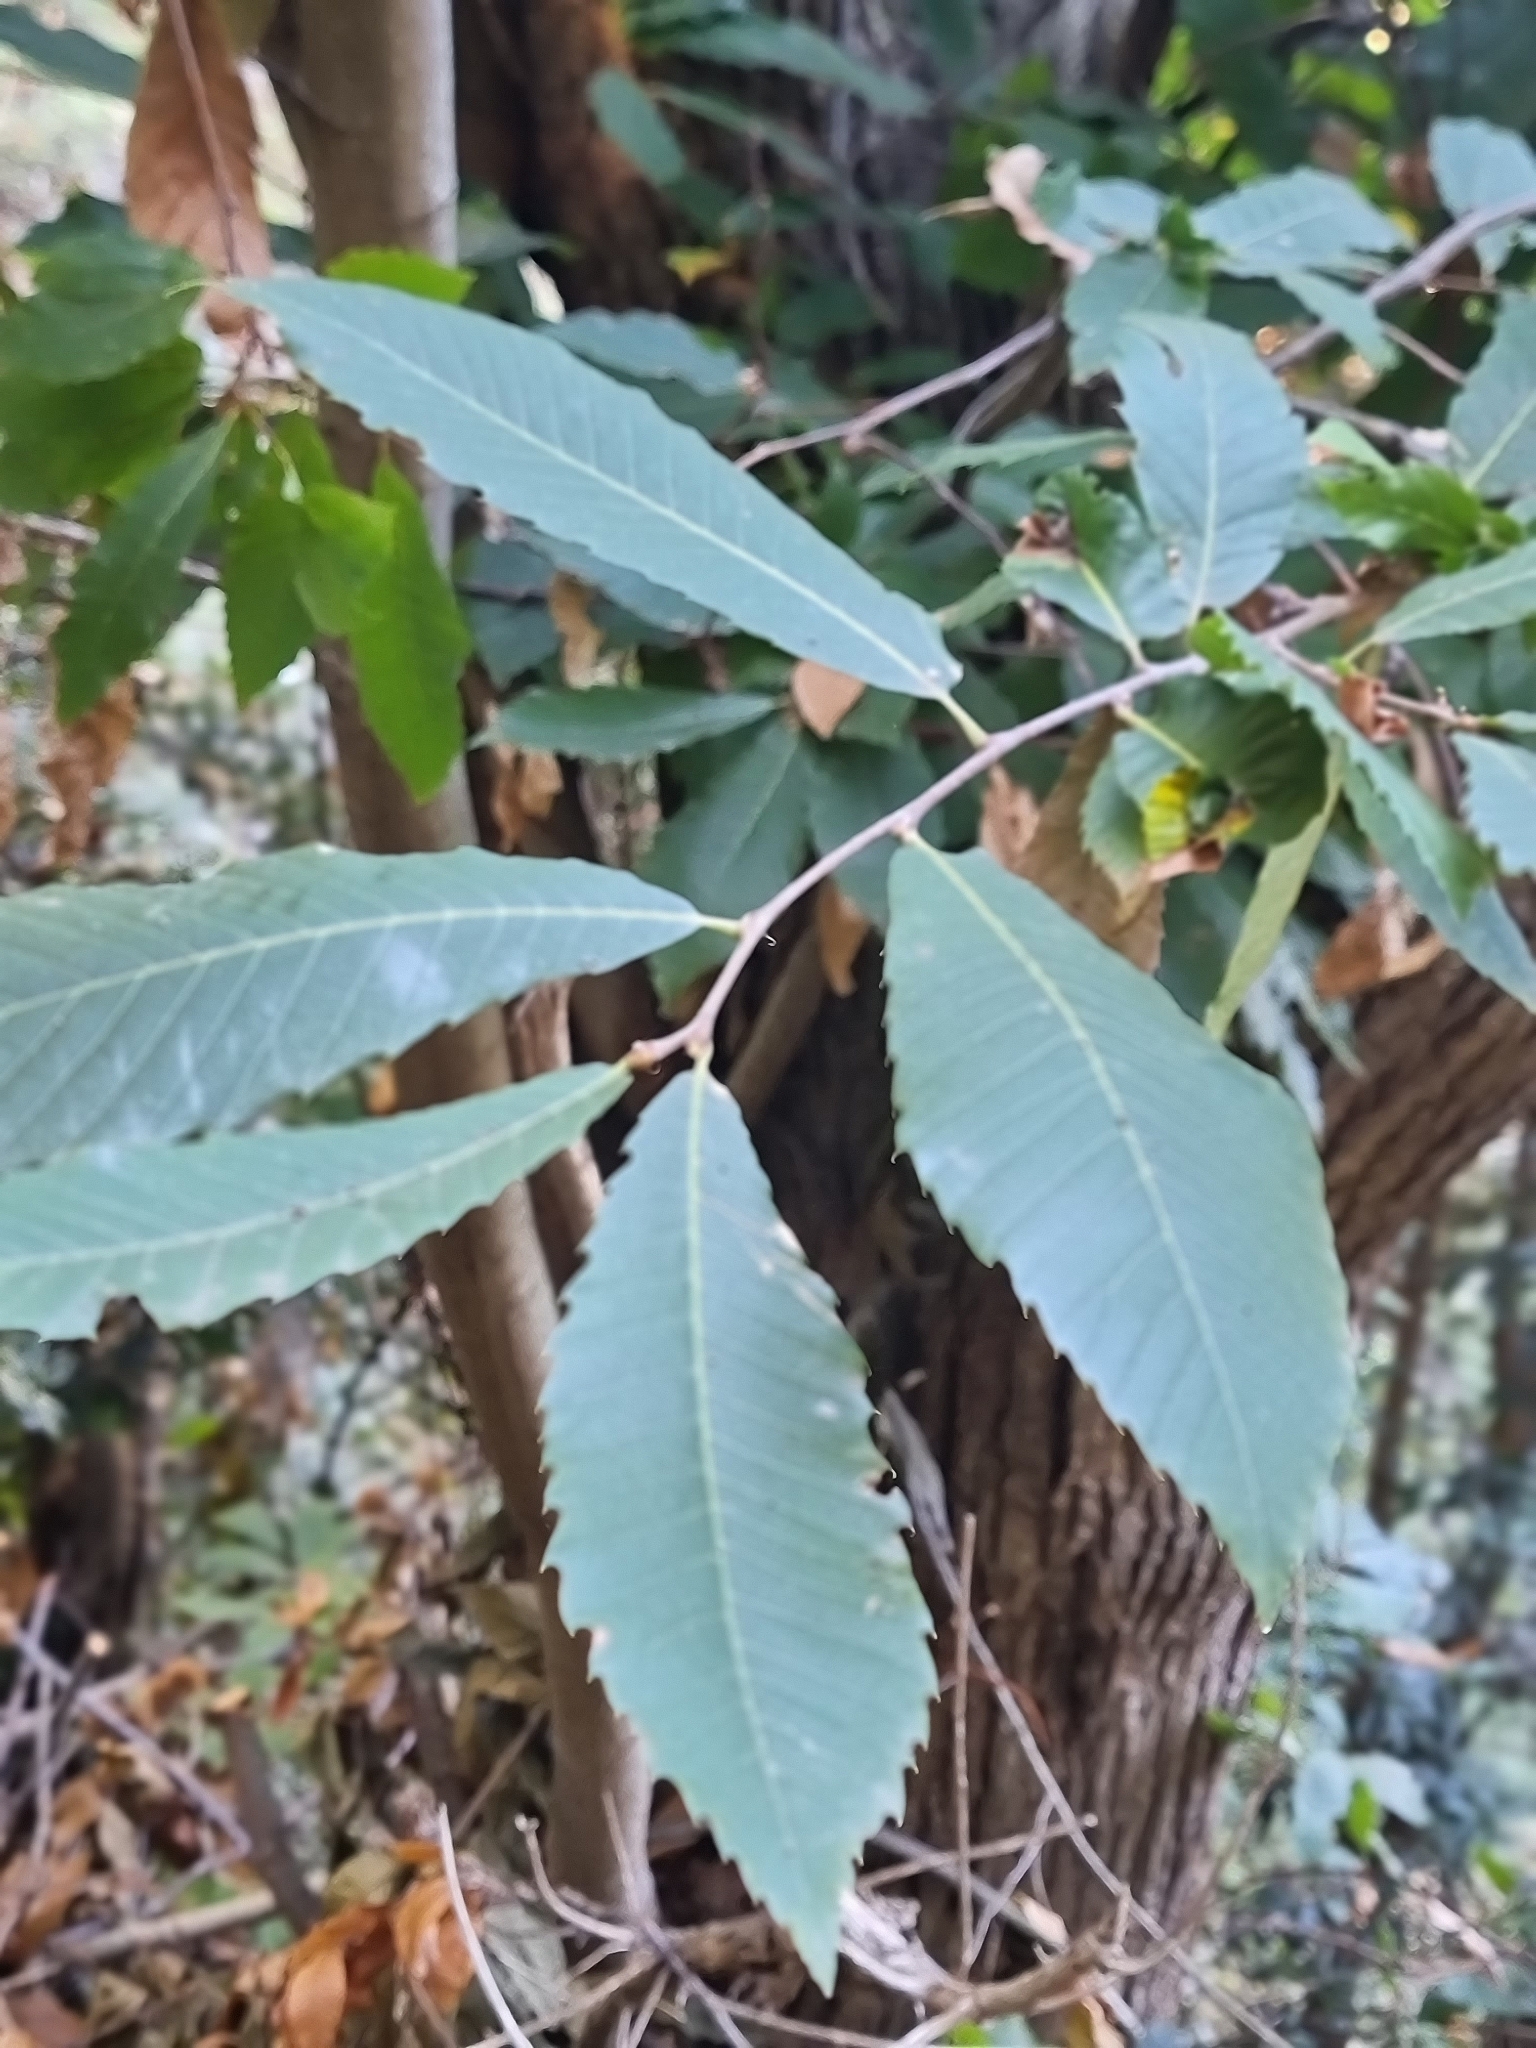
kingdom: Plantae
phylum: Tracheophyta
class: Magnoliopsida
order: Fagales
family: Fagaceae
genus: Castanea
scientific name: Castanea sativa
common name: Sweet chestnut
